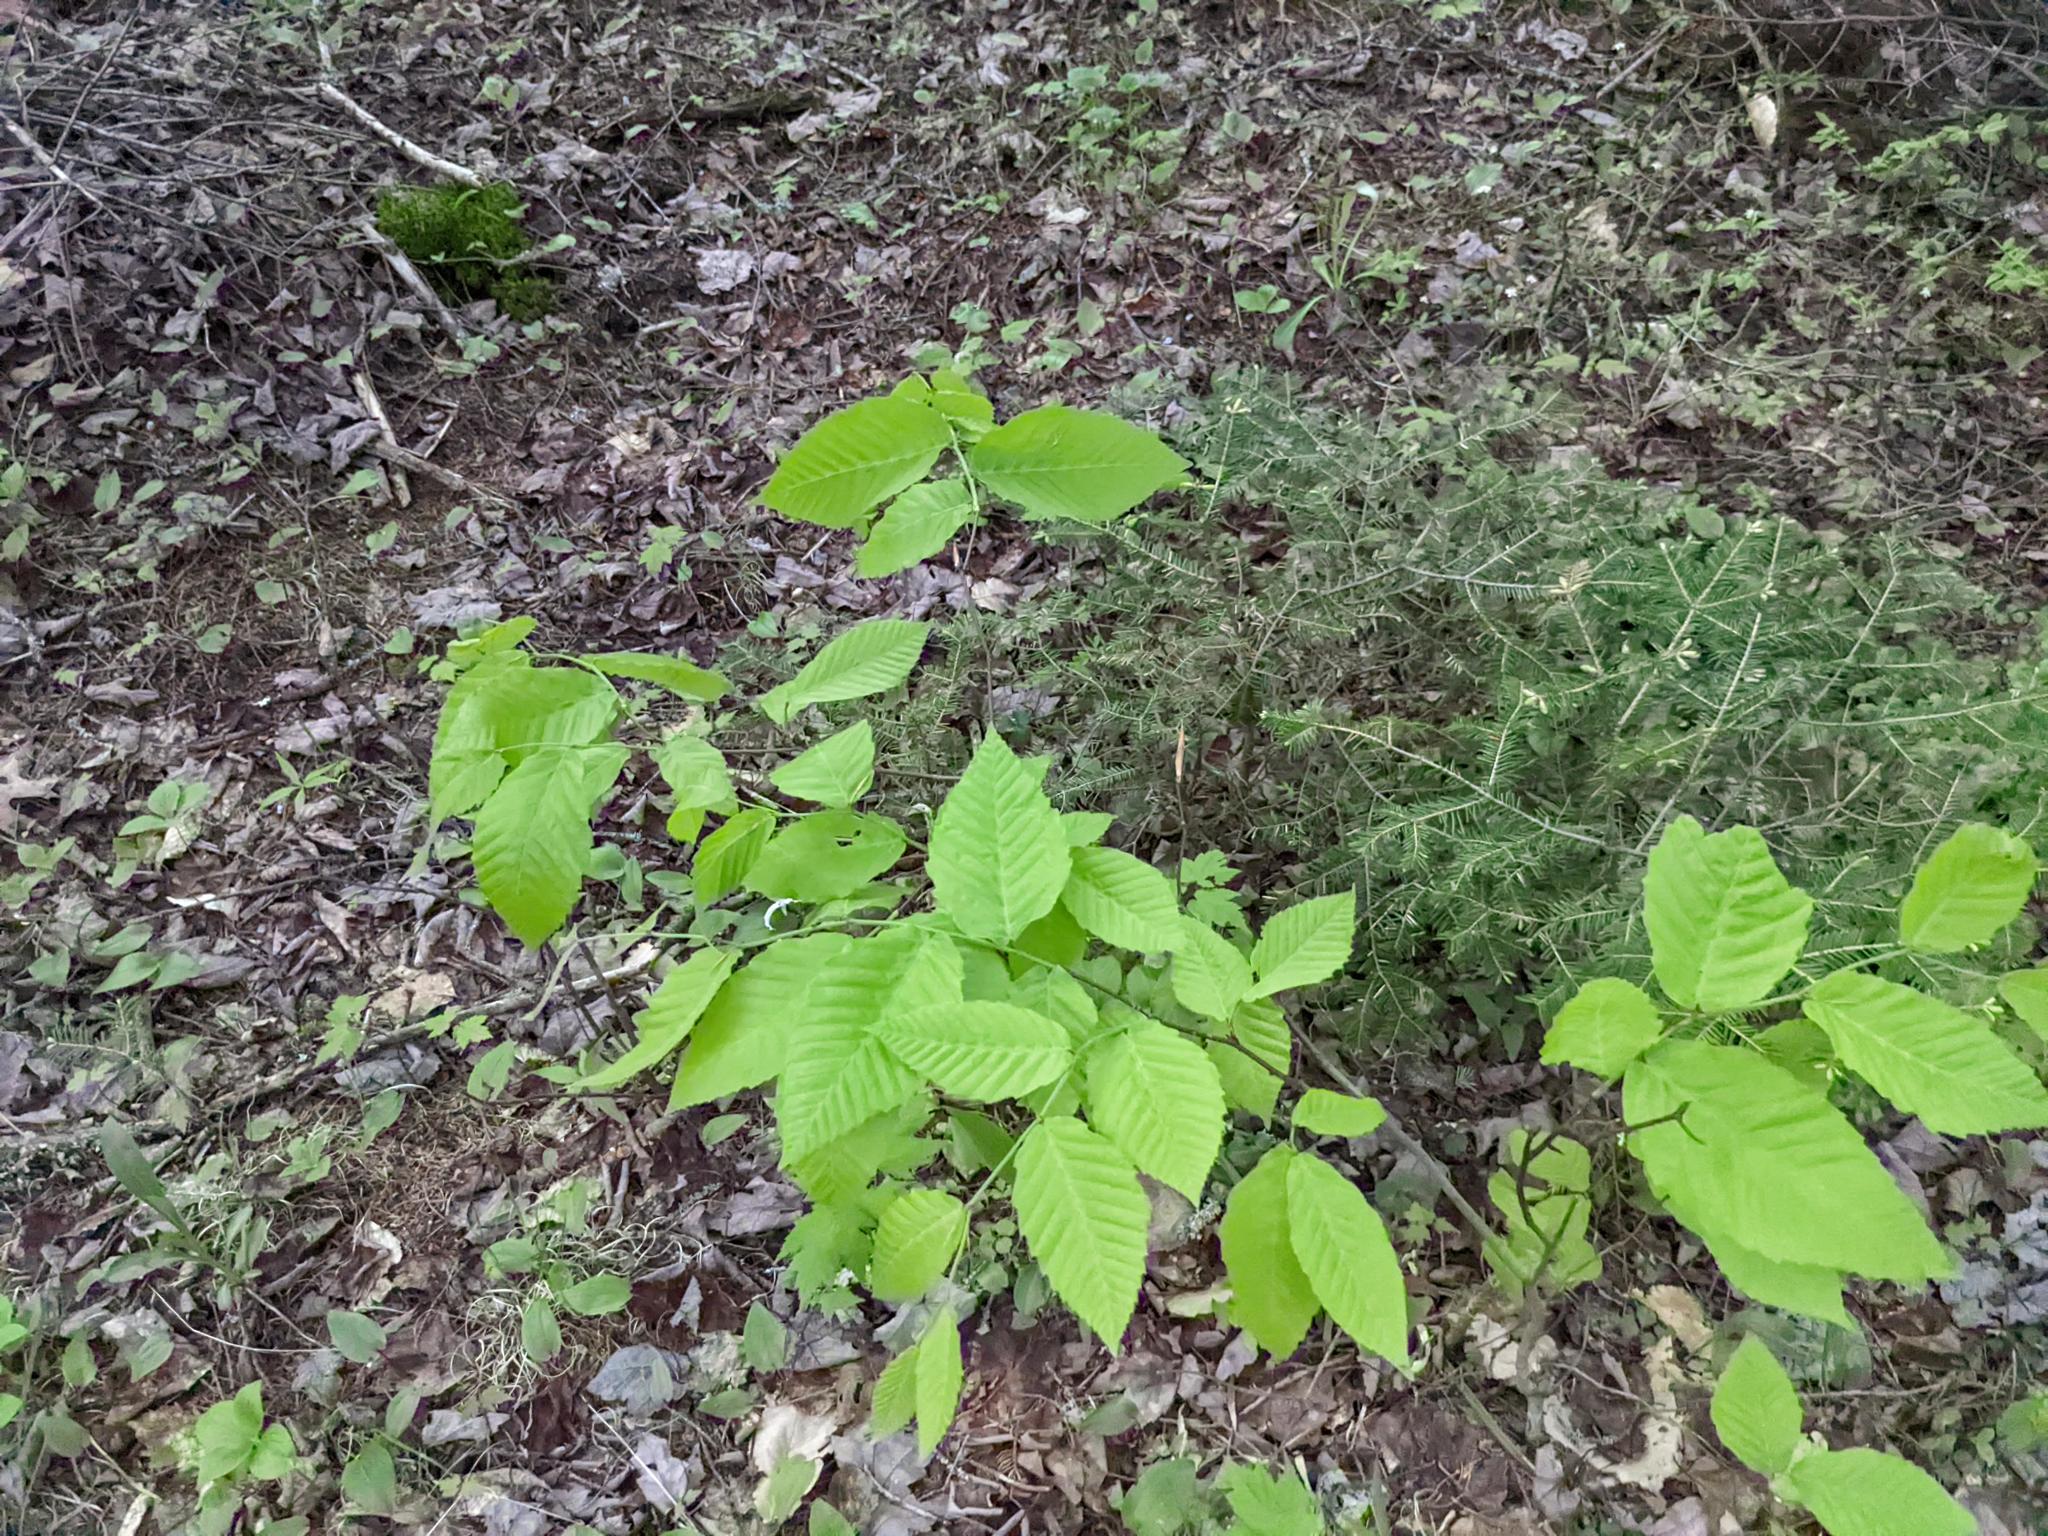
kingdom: Plantae
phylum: Tracheophyta
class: Magnoliopsida
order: Fagales
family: Fagaceae
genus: Fagus
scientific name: Fagus grandifolia
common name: American beech
